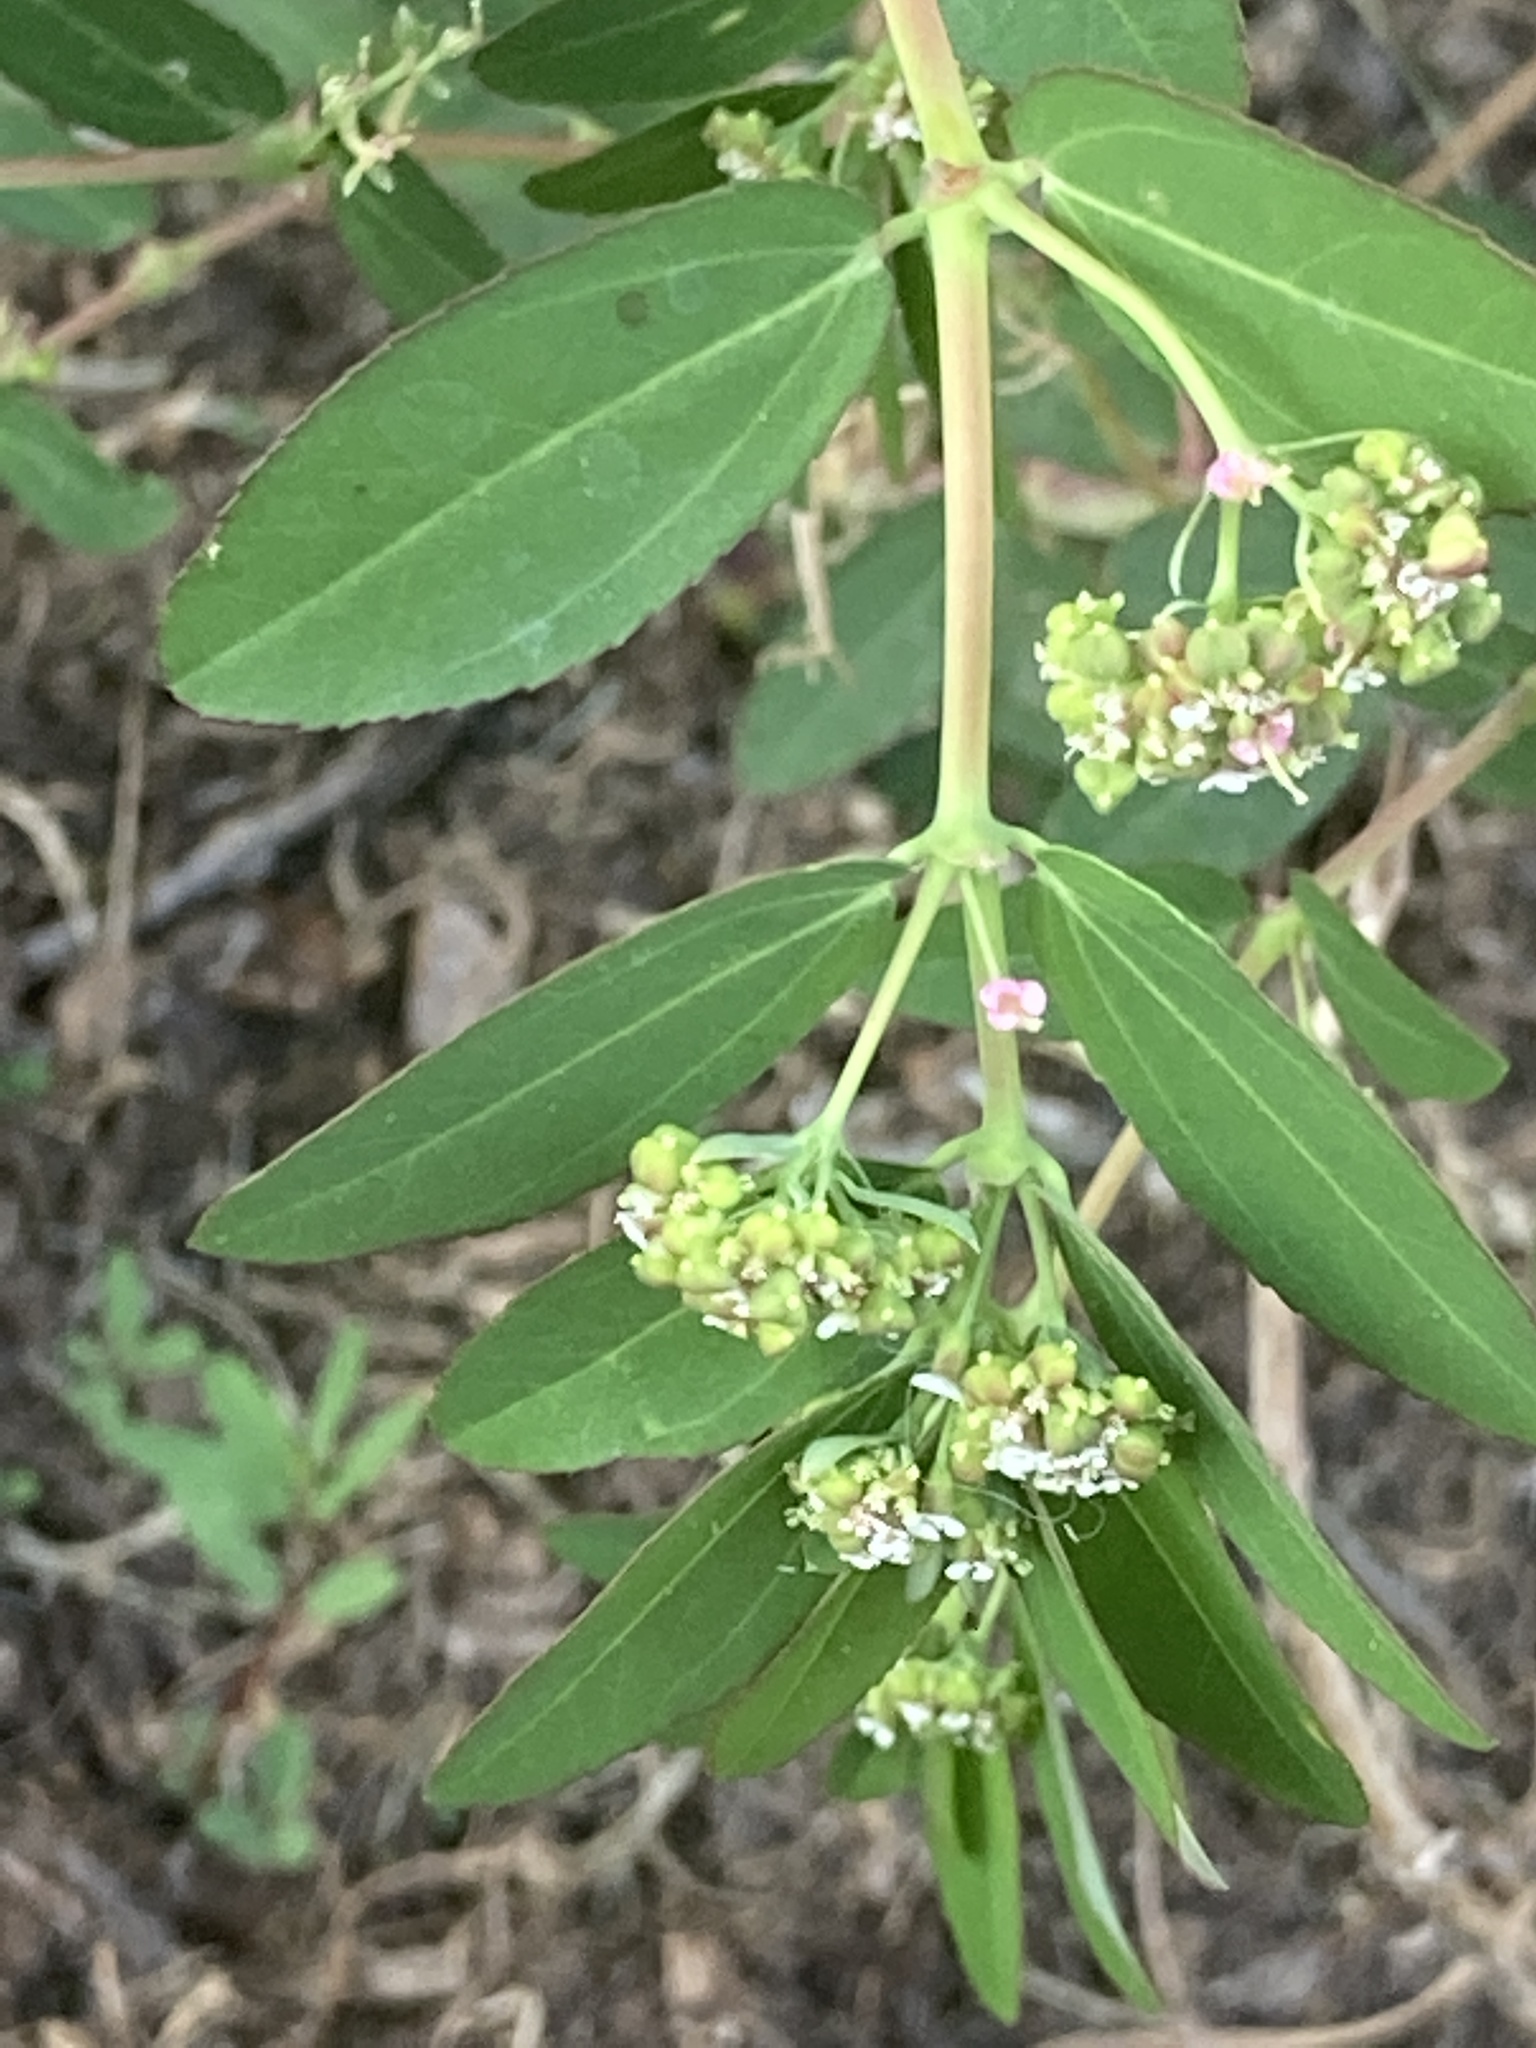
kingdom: Plantae
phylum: Tracheophyta
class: Magnoliopsida
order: Malpighiales
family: Euphorbiaceae
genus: Euphorbia
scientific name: Euphorbia hypericifolia
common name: Graceful sandmat
